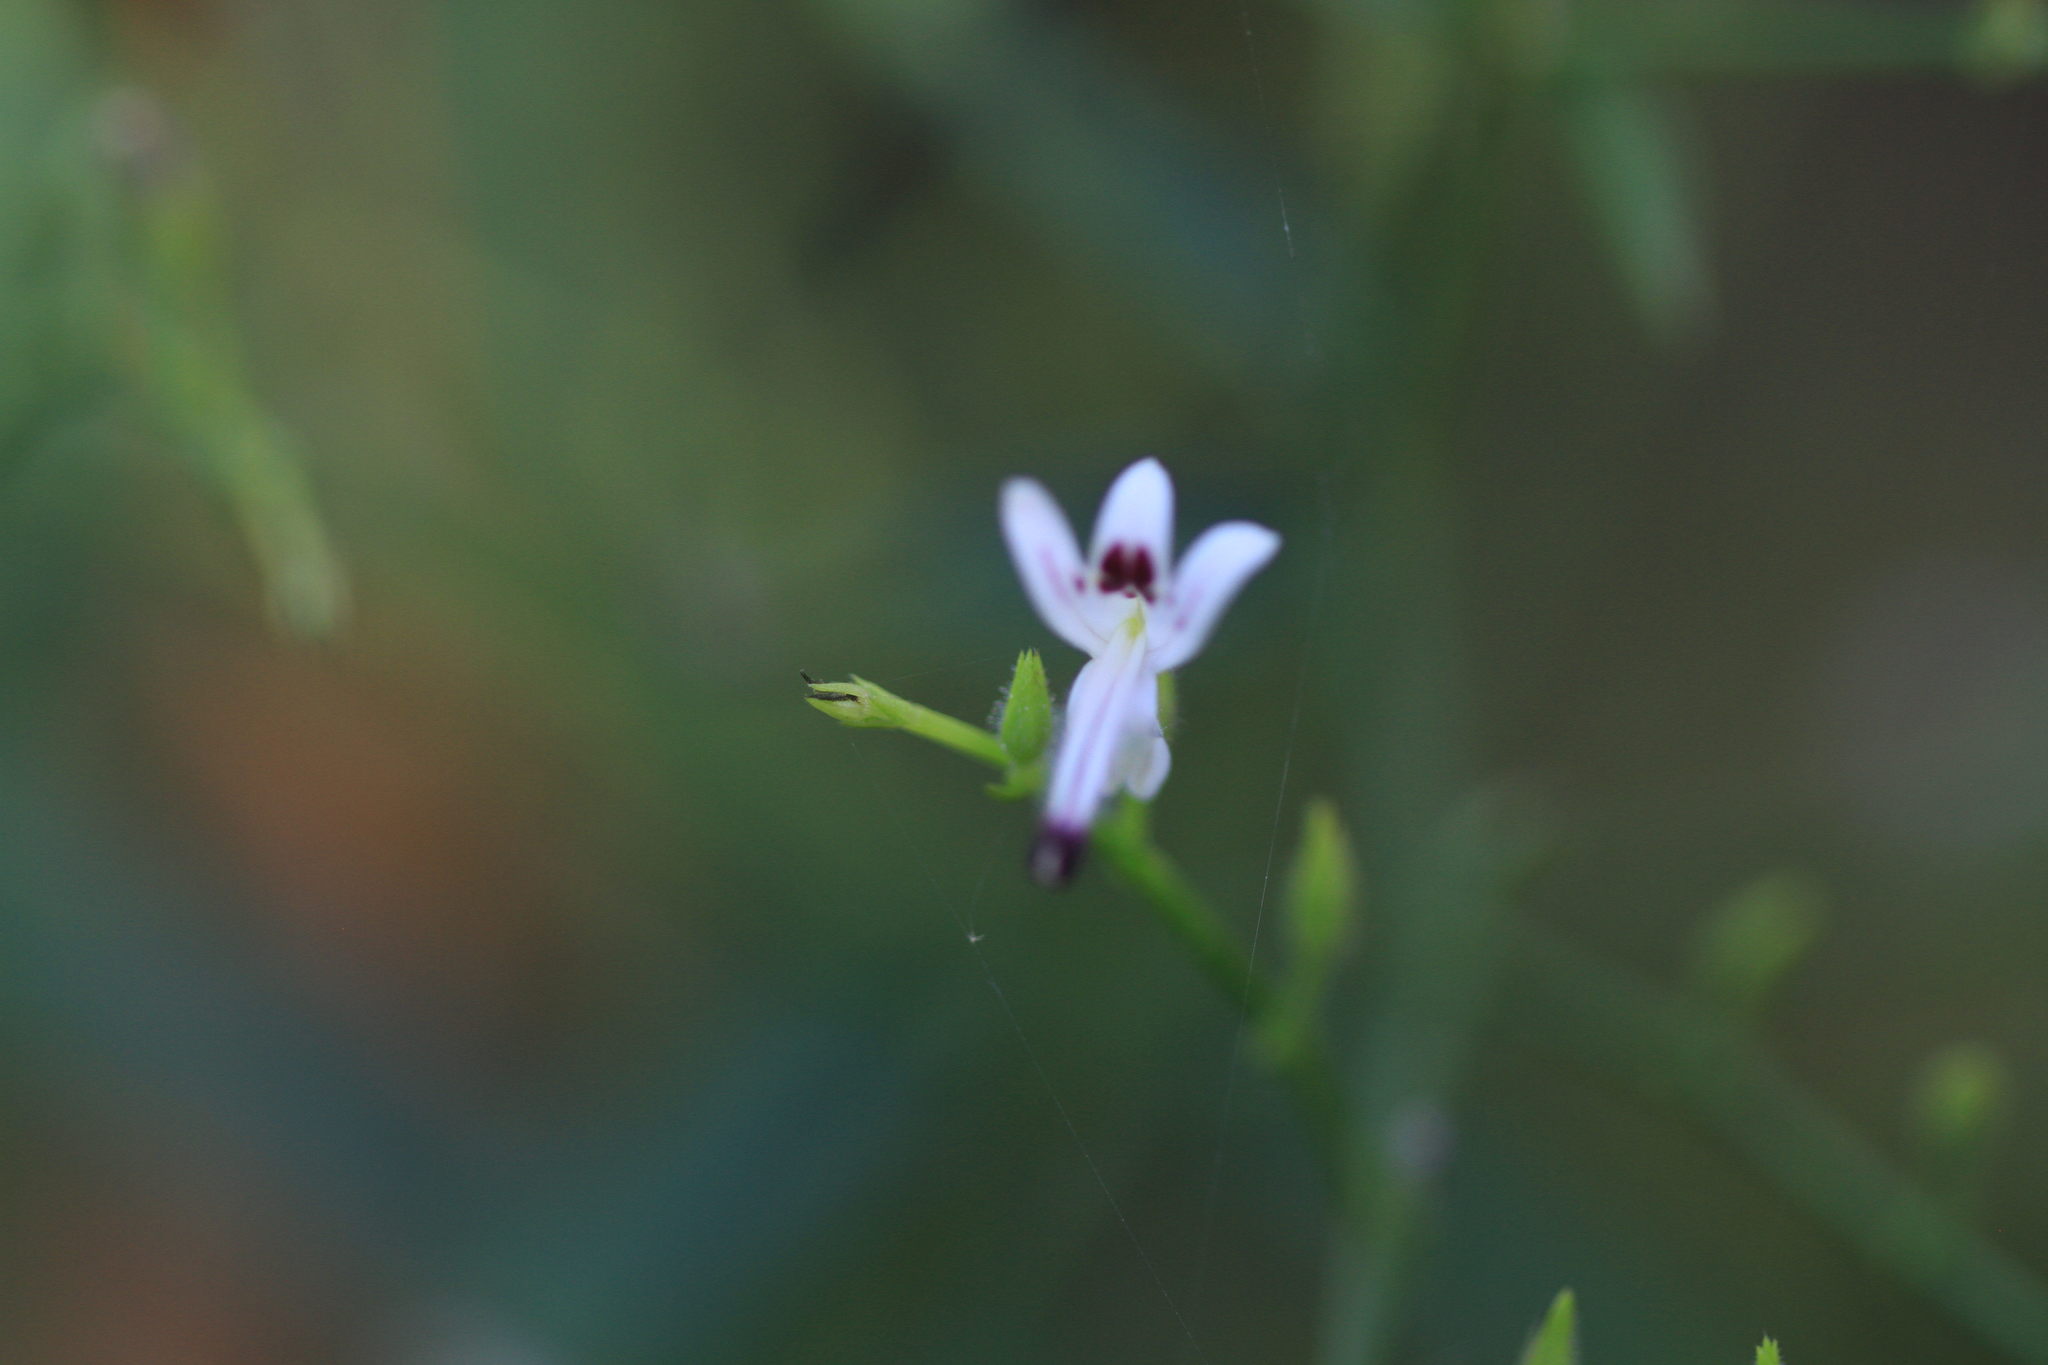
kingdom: Plantae
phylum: Tracheophyta
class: Magnoliopsida
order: Lamiales
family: Acanthaceae
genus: Andrographis
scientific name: Andrographis paniculata
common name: Green chireta
